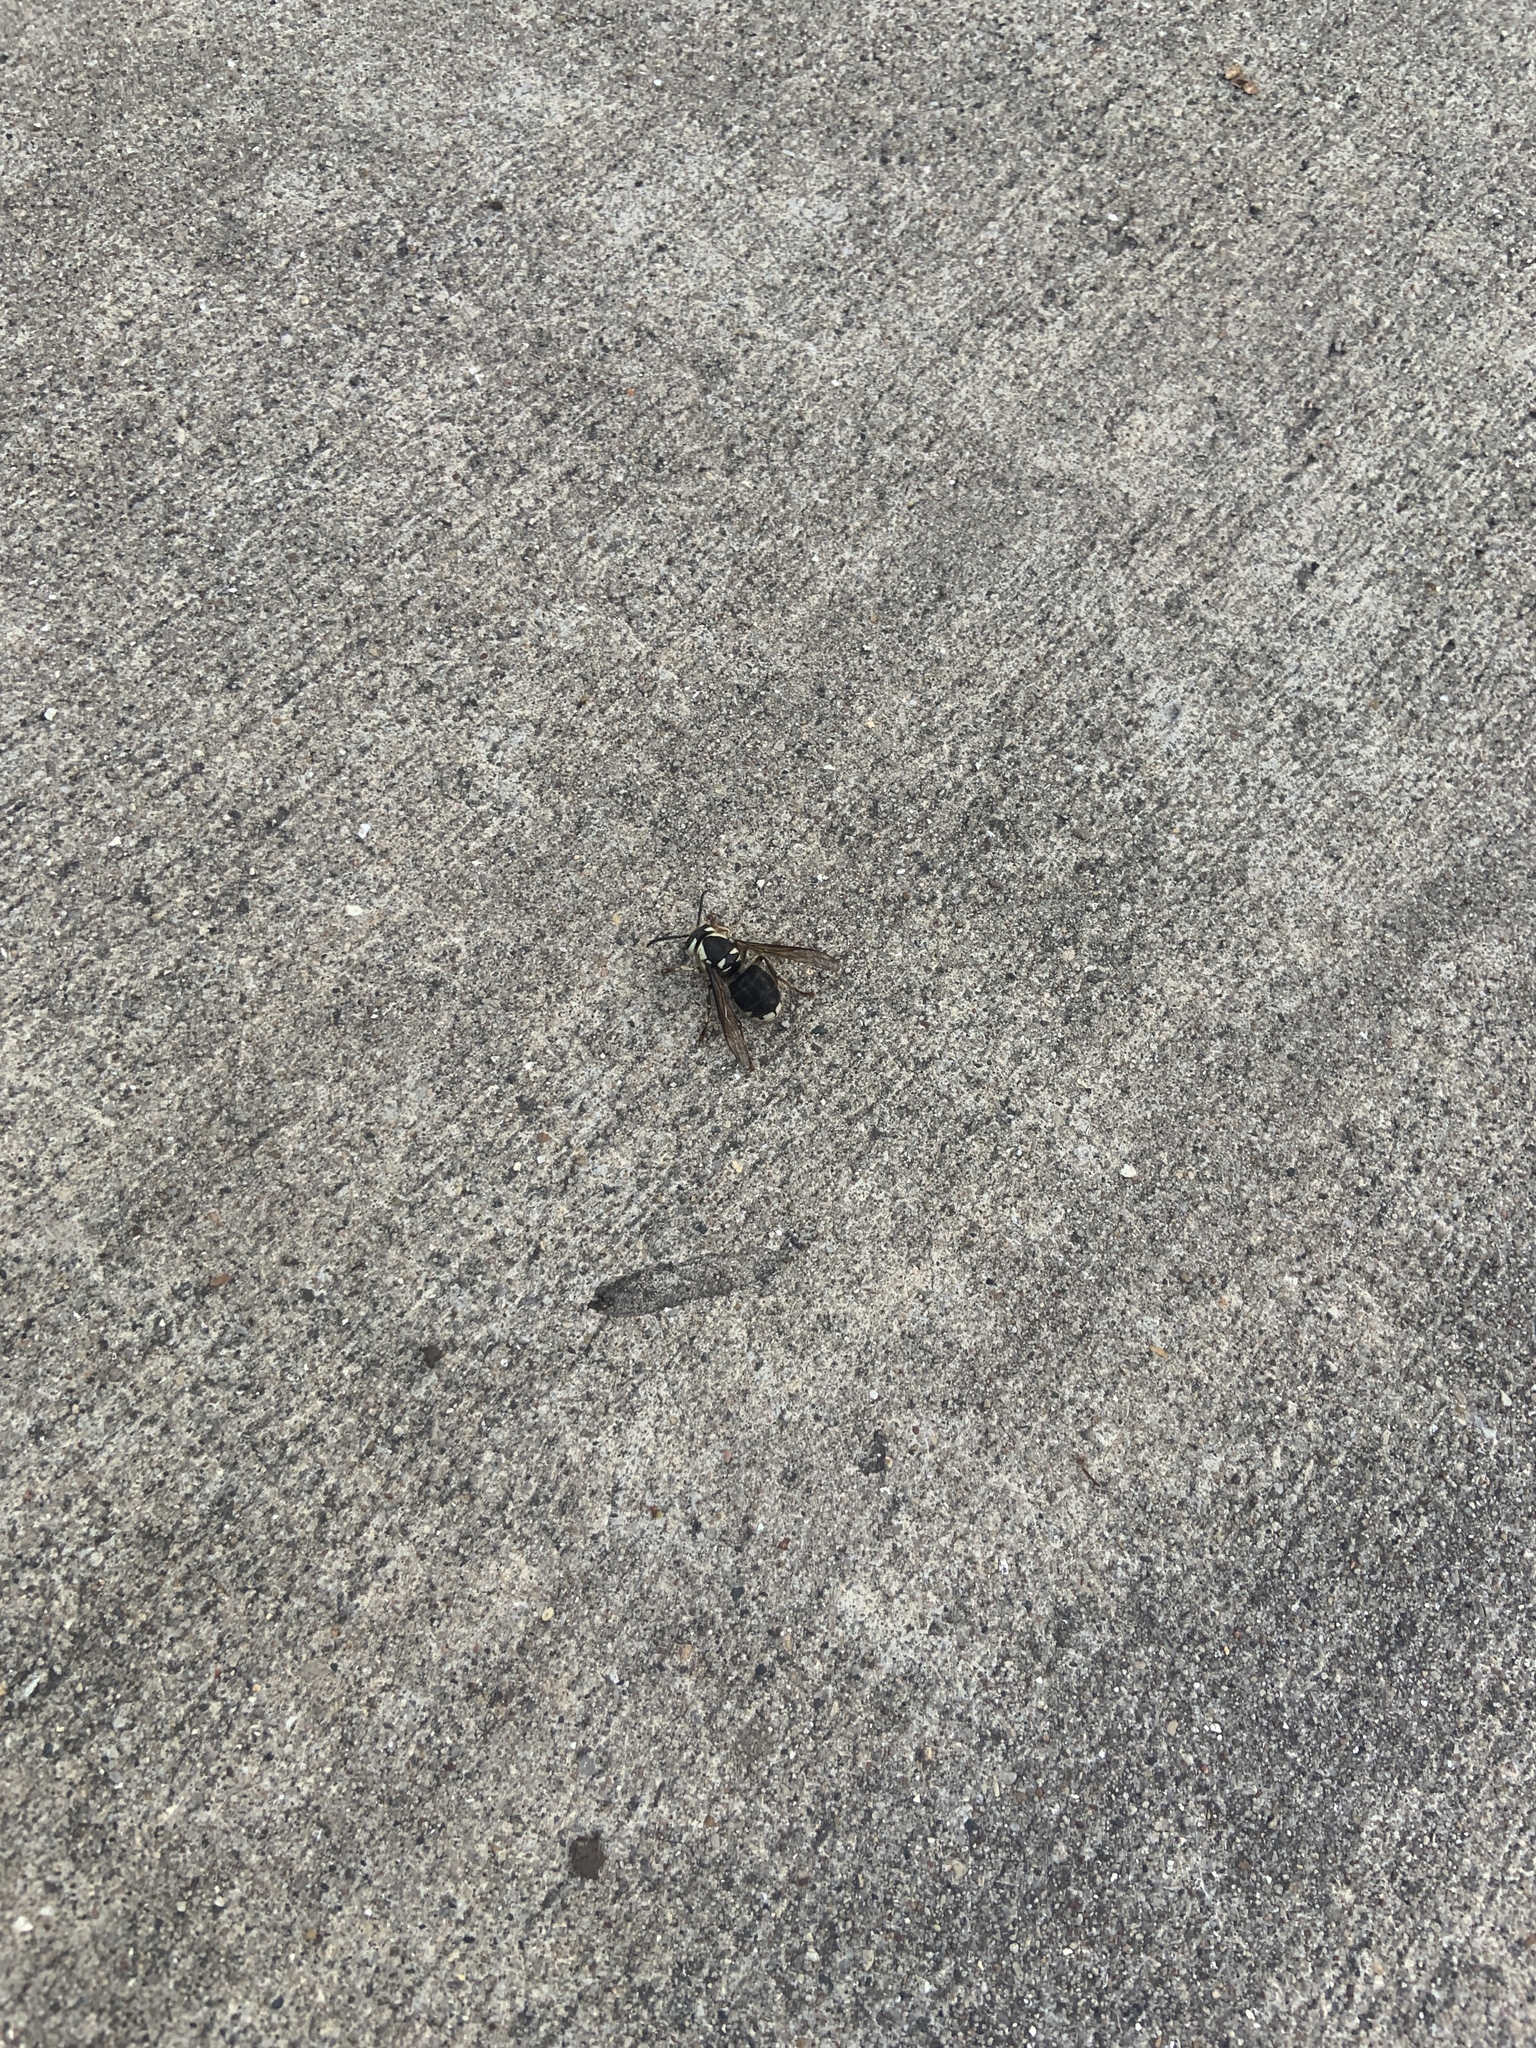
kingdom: Animalia
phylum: Arthropoda
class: Insecta
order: Hymenoptera
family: Vespidae
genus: Dolichovespula
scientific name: Dolichovespula maculata
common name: Bald-faced hornet
